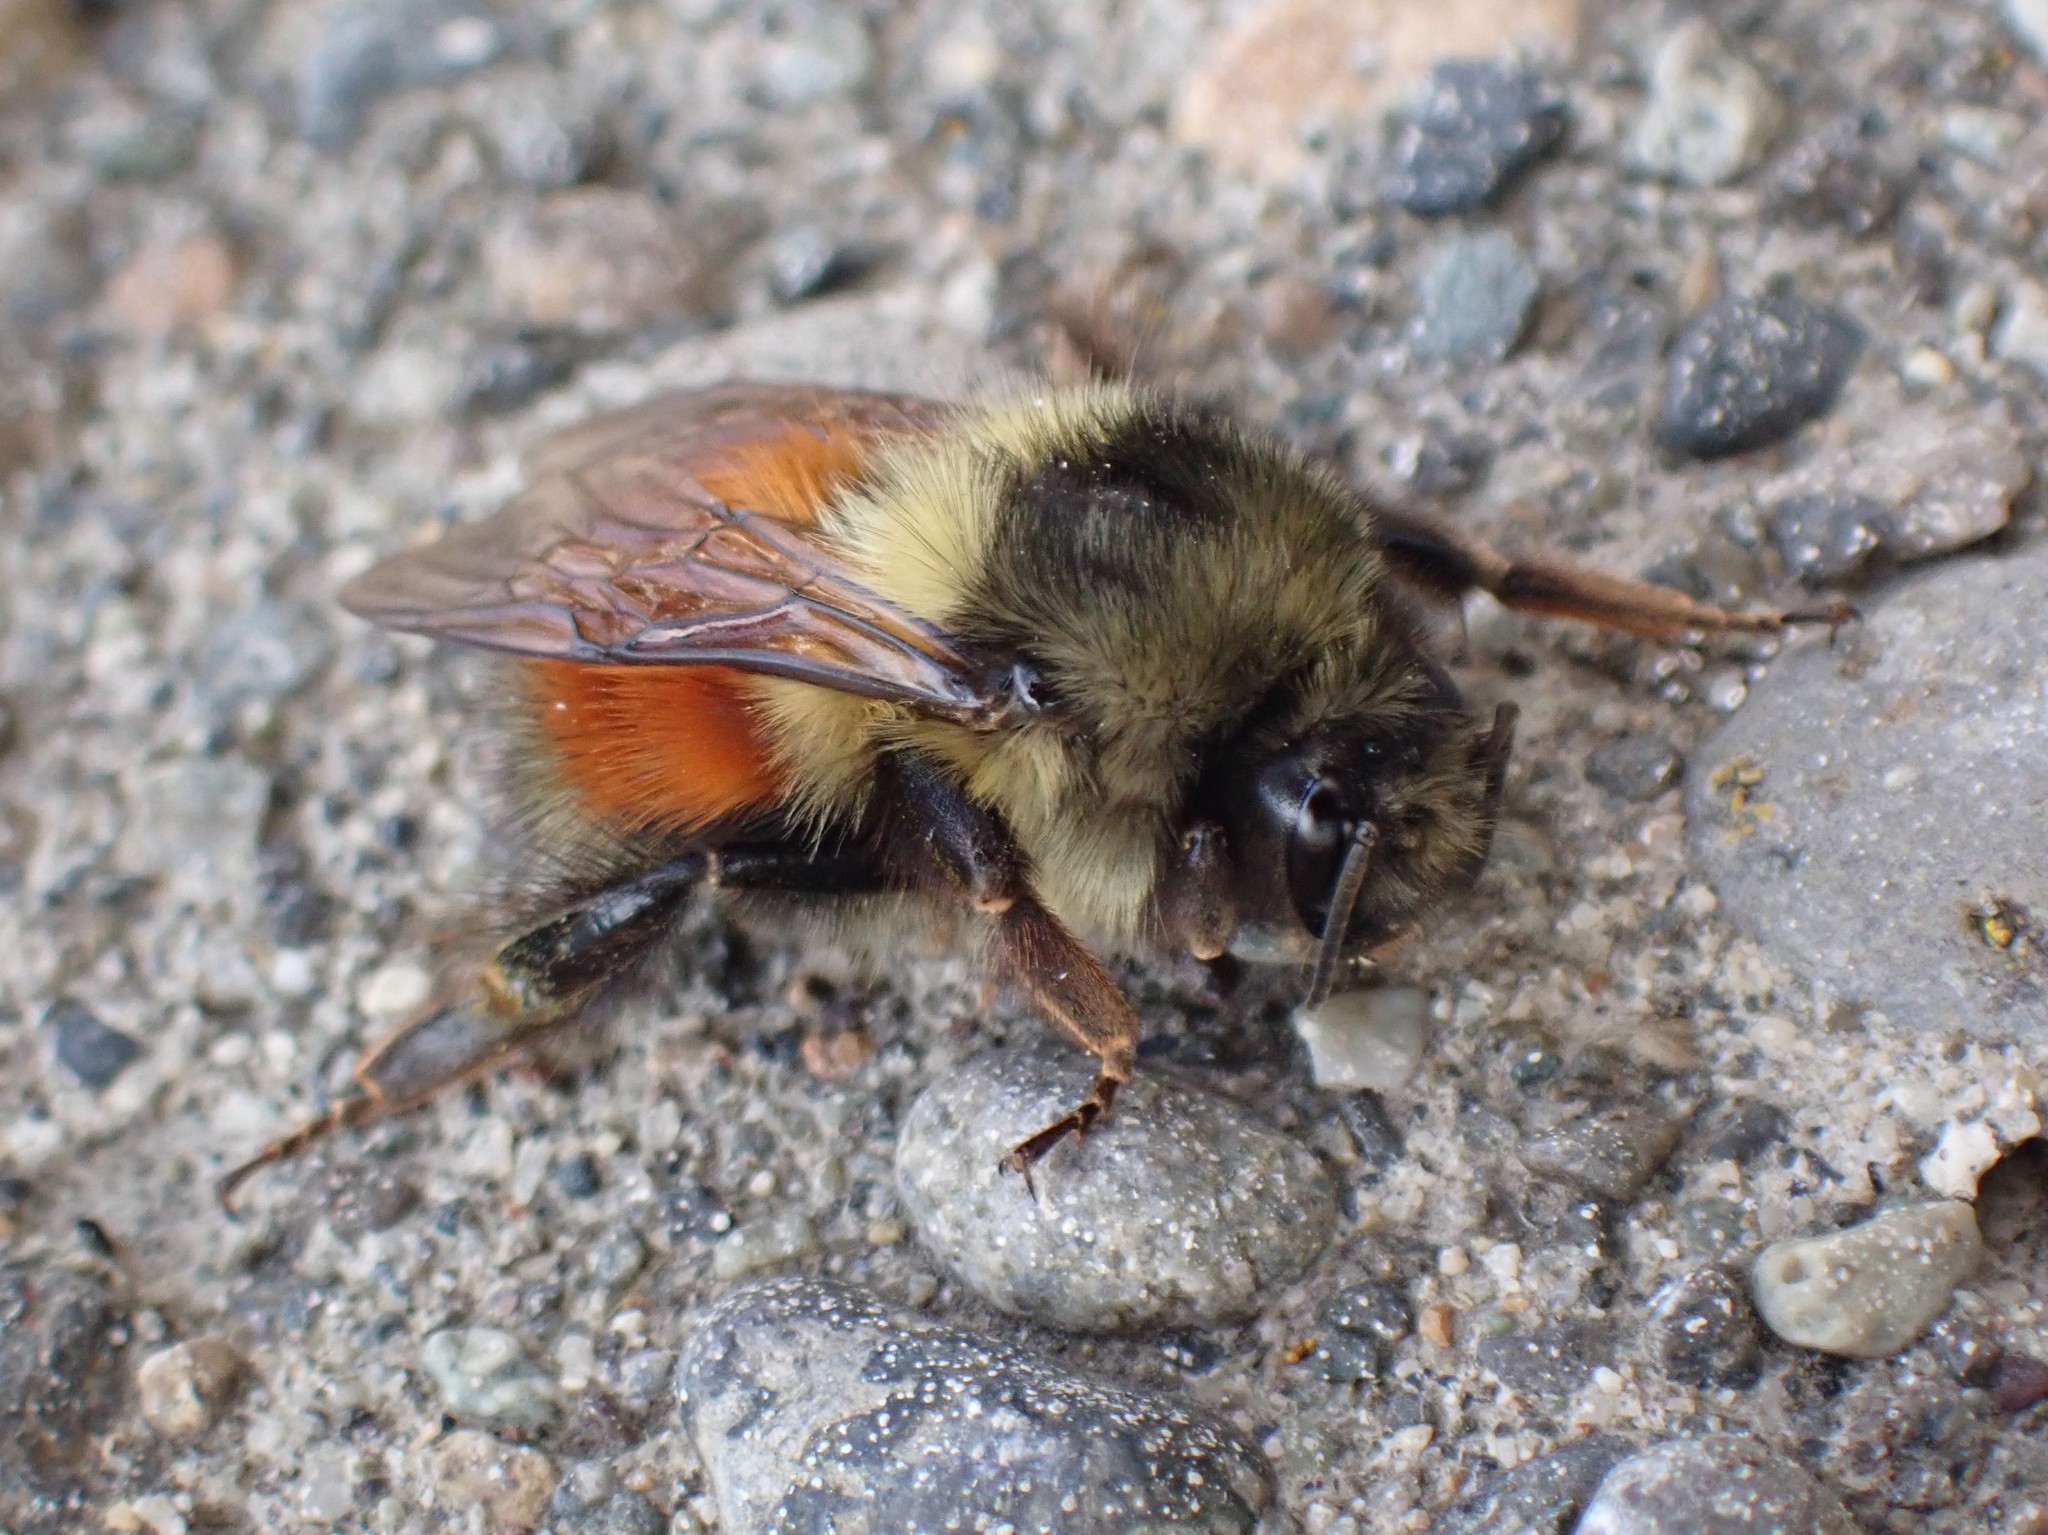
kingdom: Animalia
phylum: Arthropoda
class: Insecta
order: Hymenoptera
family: Apidae
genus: Bombus
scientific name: Bombus melanopygus
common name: Black tail bumble bee
